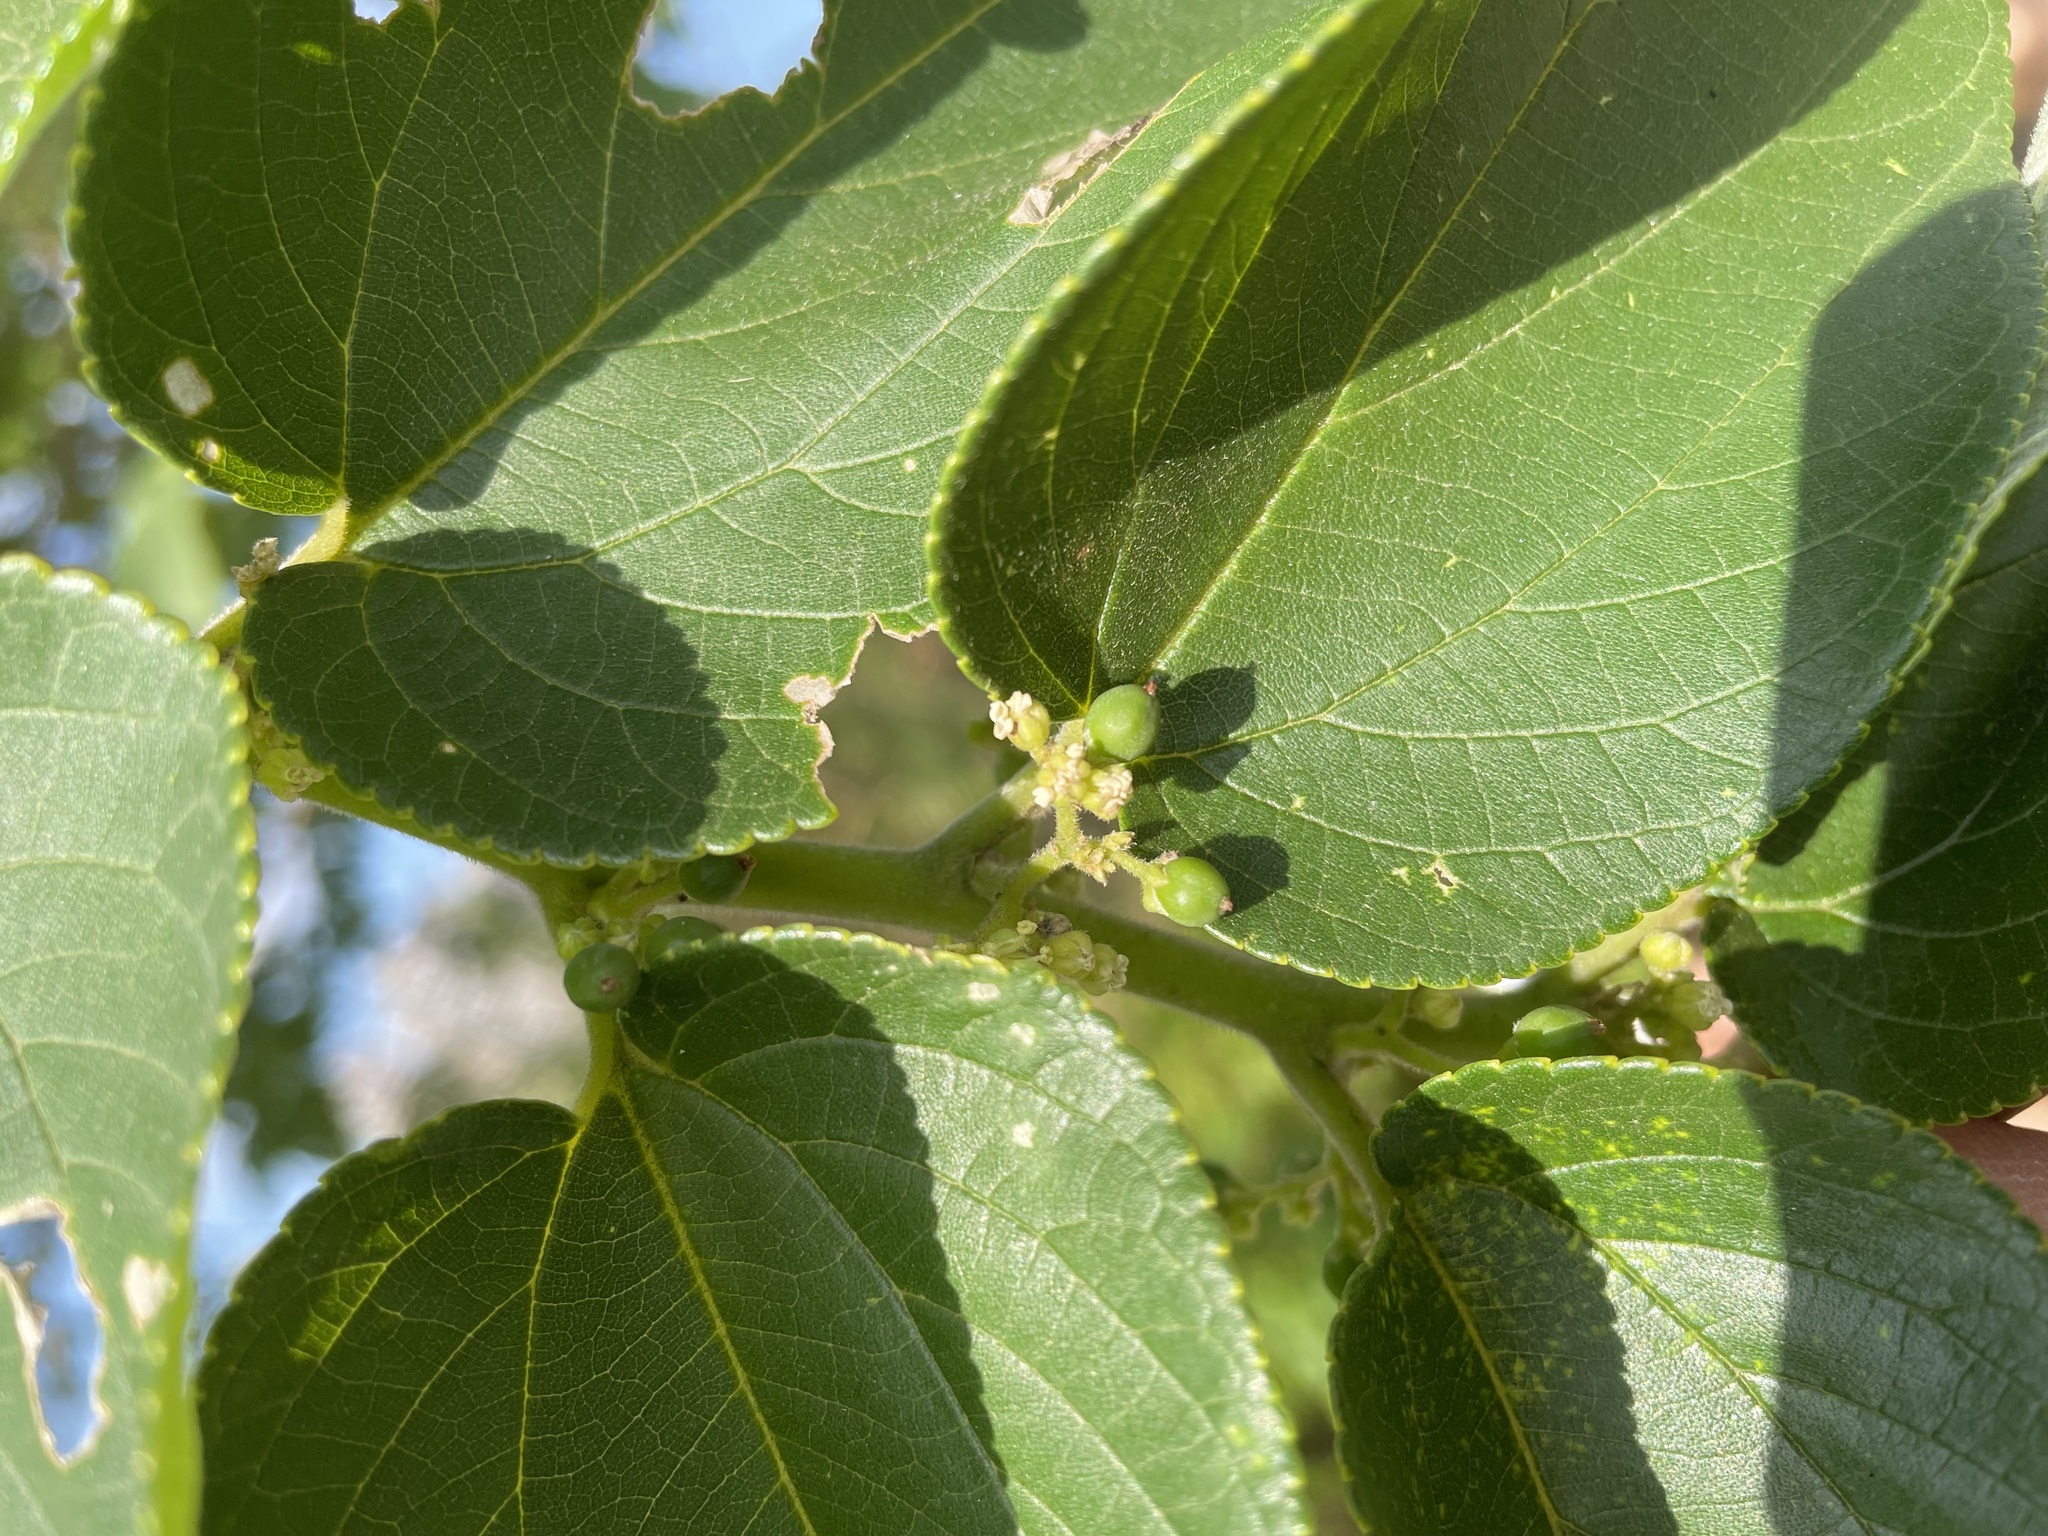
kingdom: Plantae
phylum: Tracheophyta
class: Magnoliopsida
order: Rosales
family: Cannabaceae
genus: Trema
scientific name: Trema orientale
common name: Indian charcoal tree
